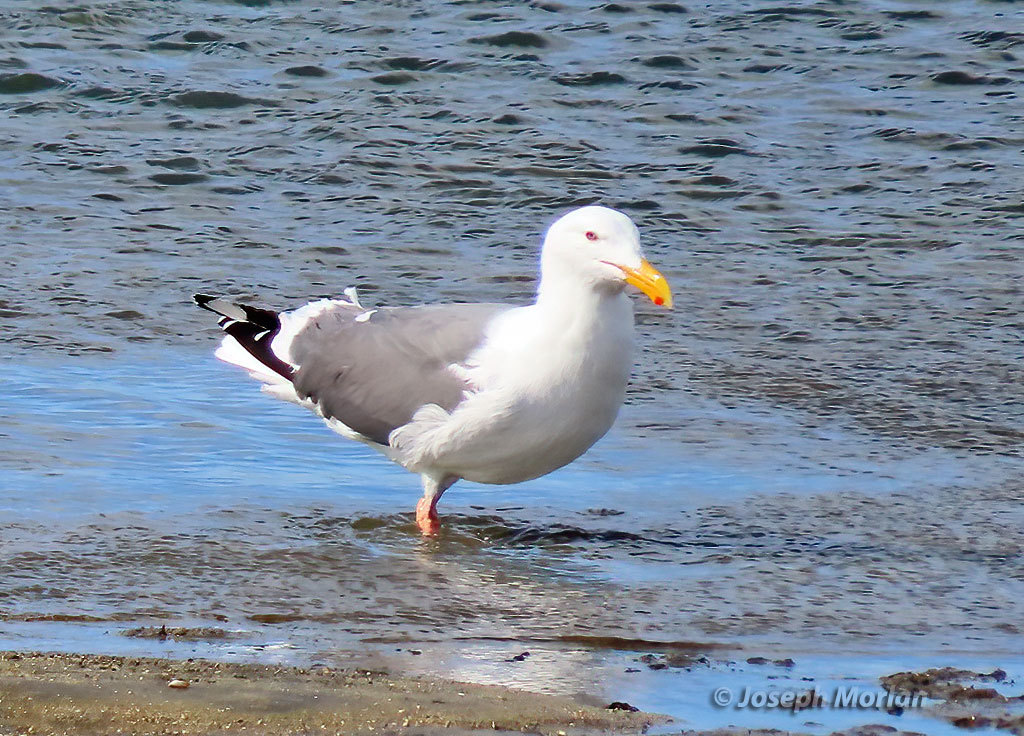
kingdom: Animalia
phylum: Chordata
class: Aves
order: Charadriiformes
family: Laridae
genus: Larus
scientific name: Larus occidentalis
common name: Western gull
